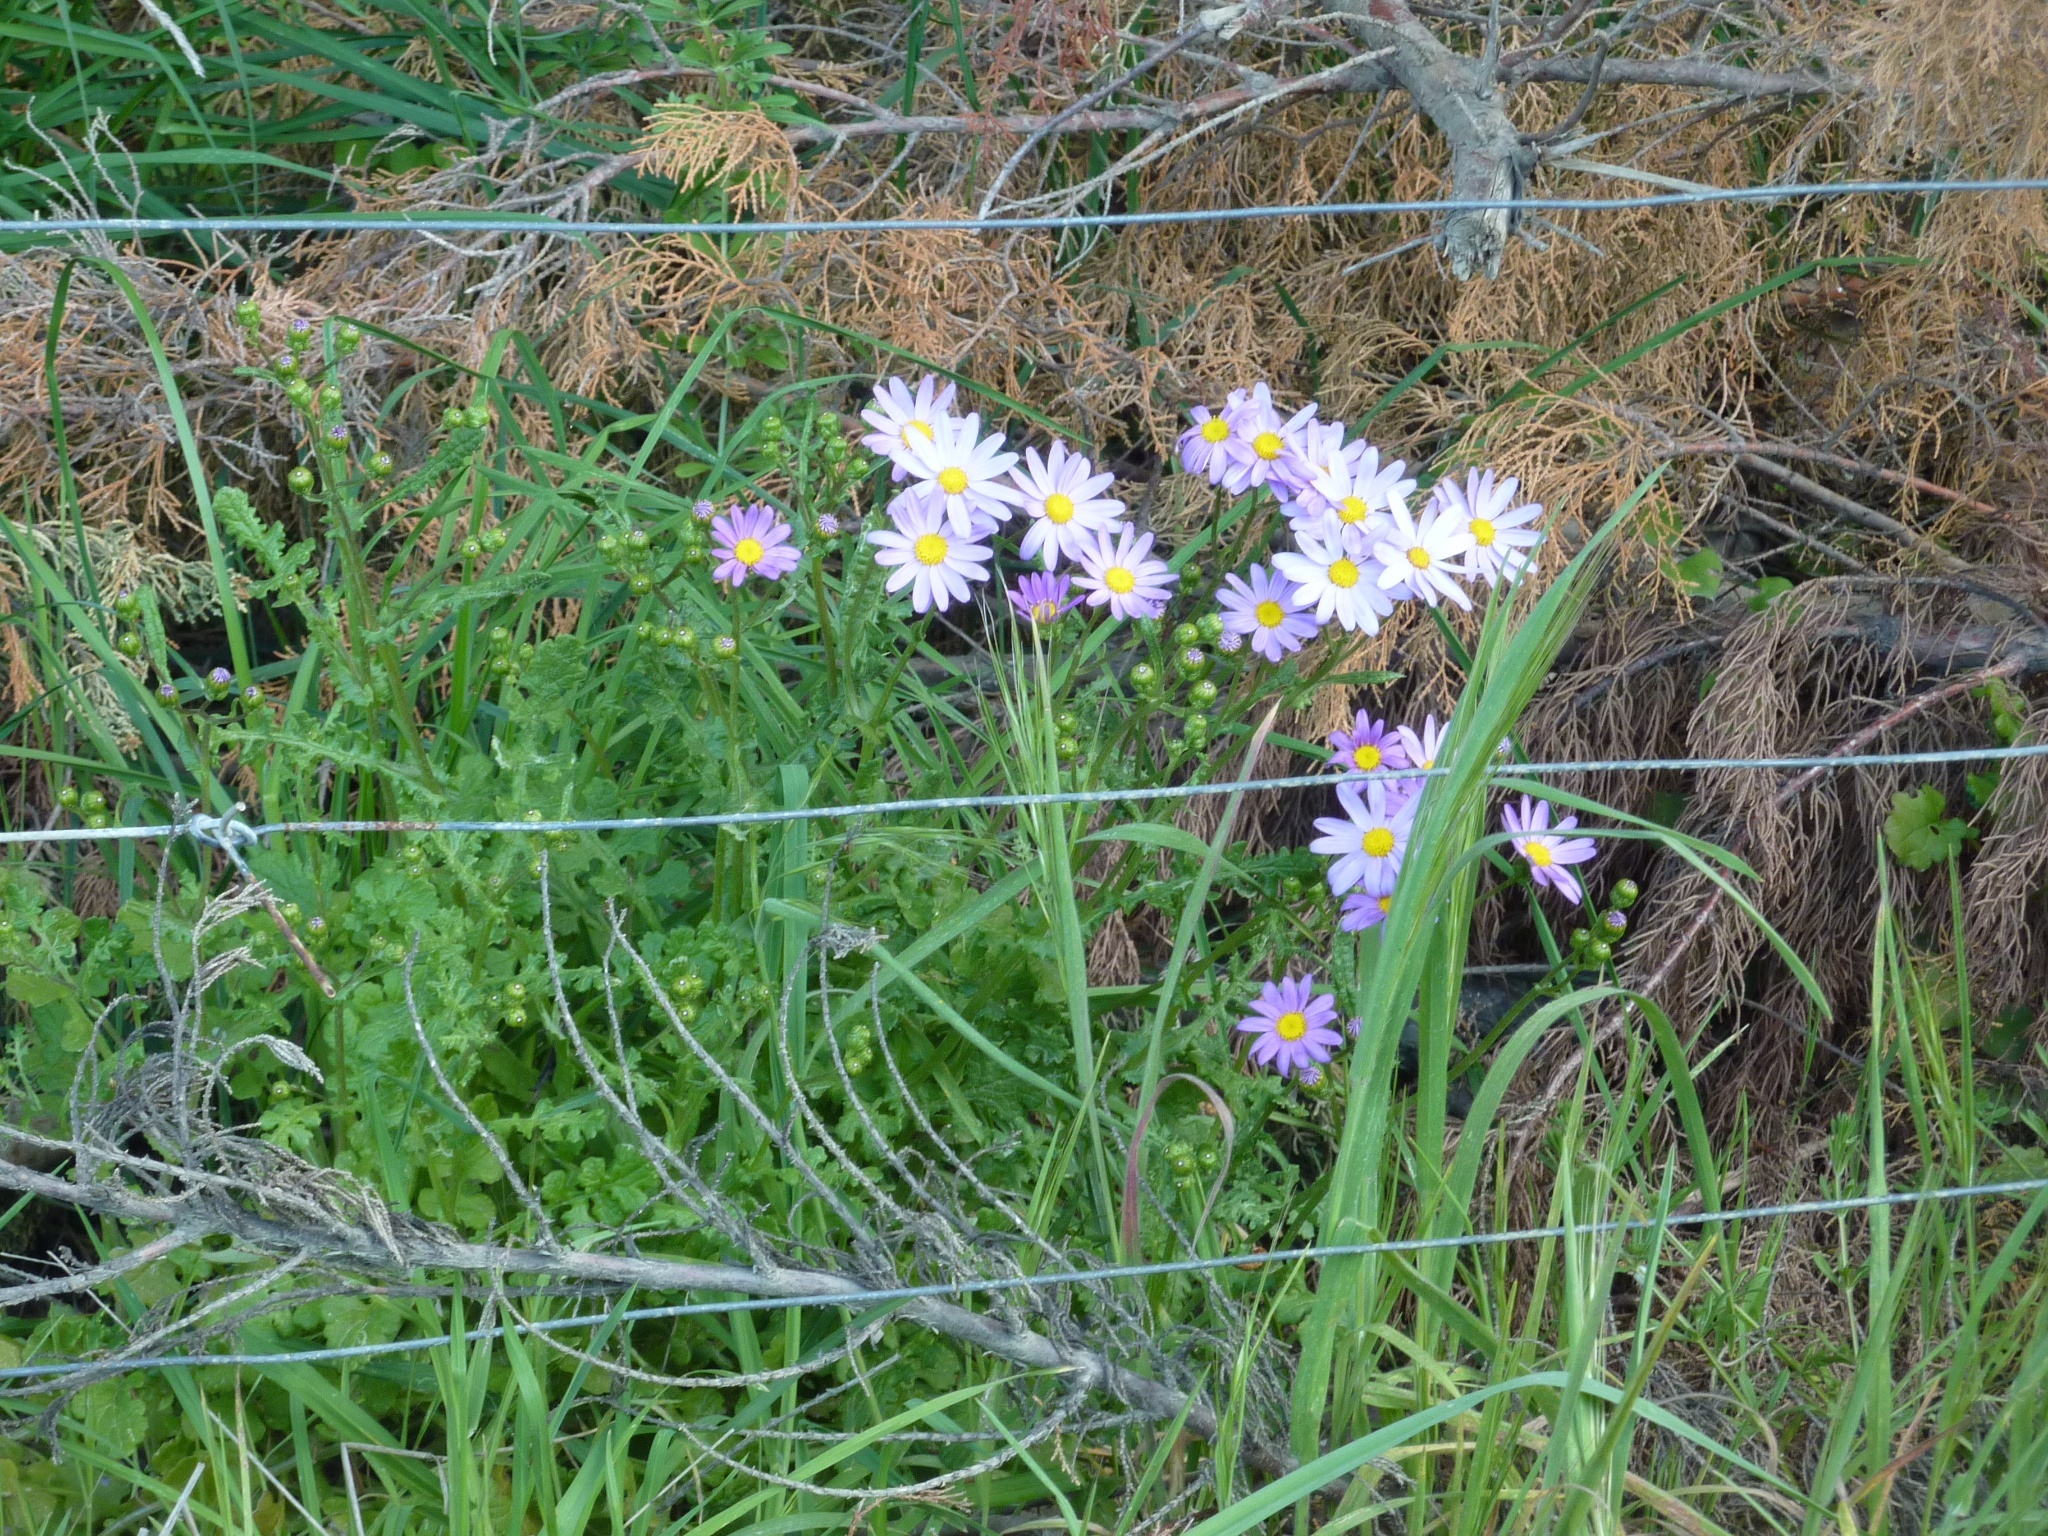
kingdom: Plantae
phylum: Tracheophyta
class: Magnoliopsida
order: Asterales
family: Asteraceae
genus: Senecio
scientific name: Senecio elegans
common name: Purple groundsel
